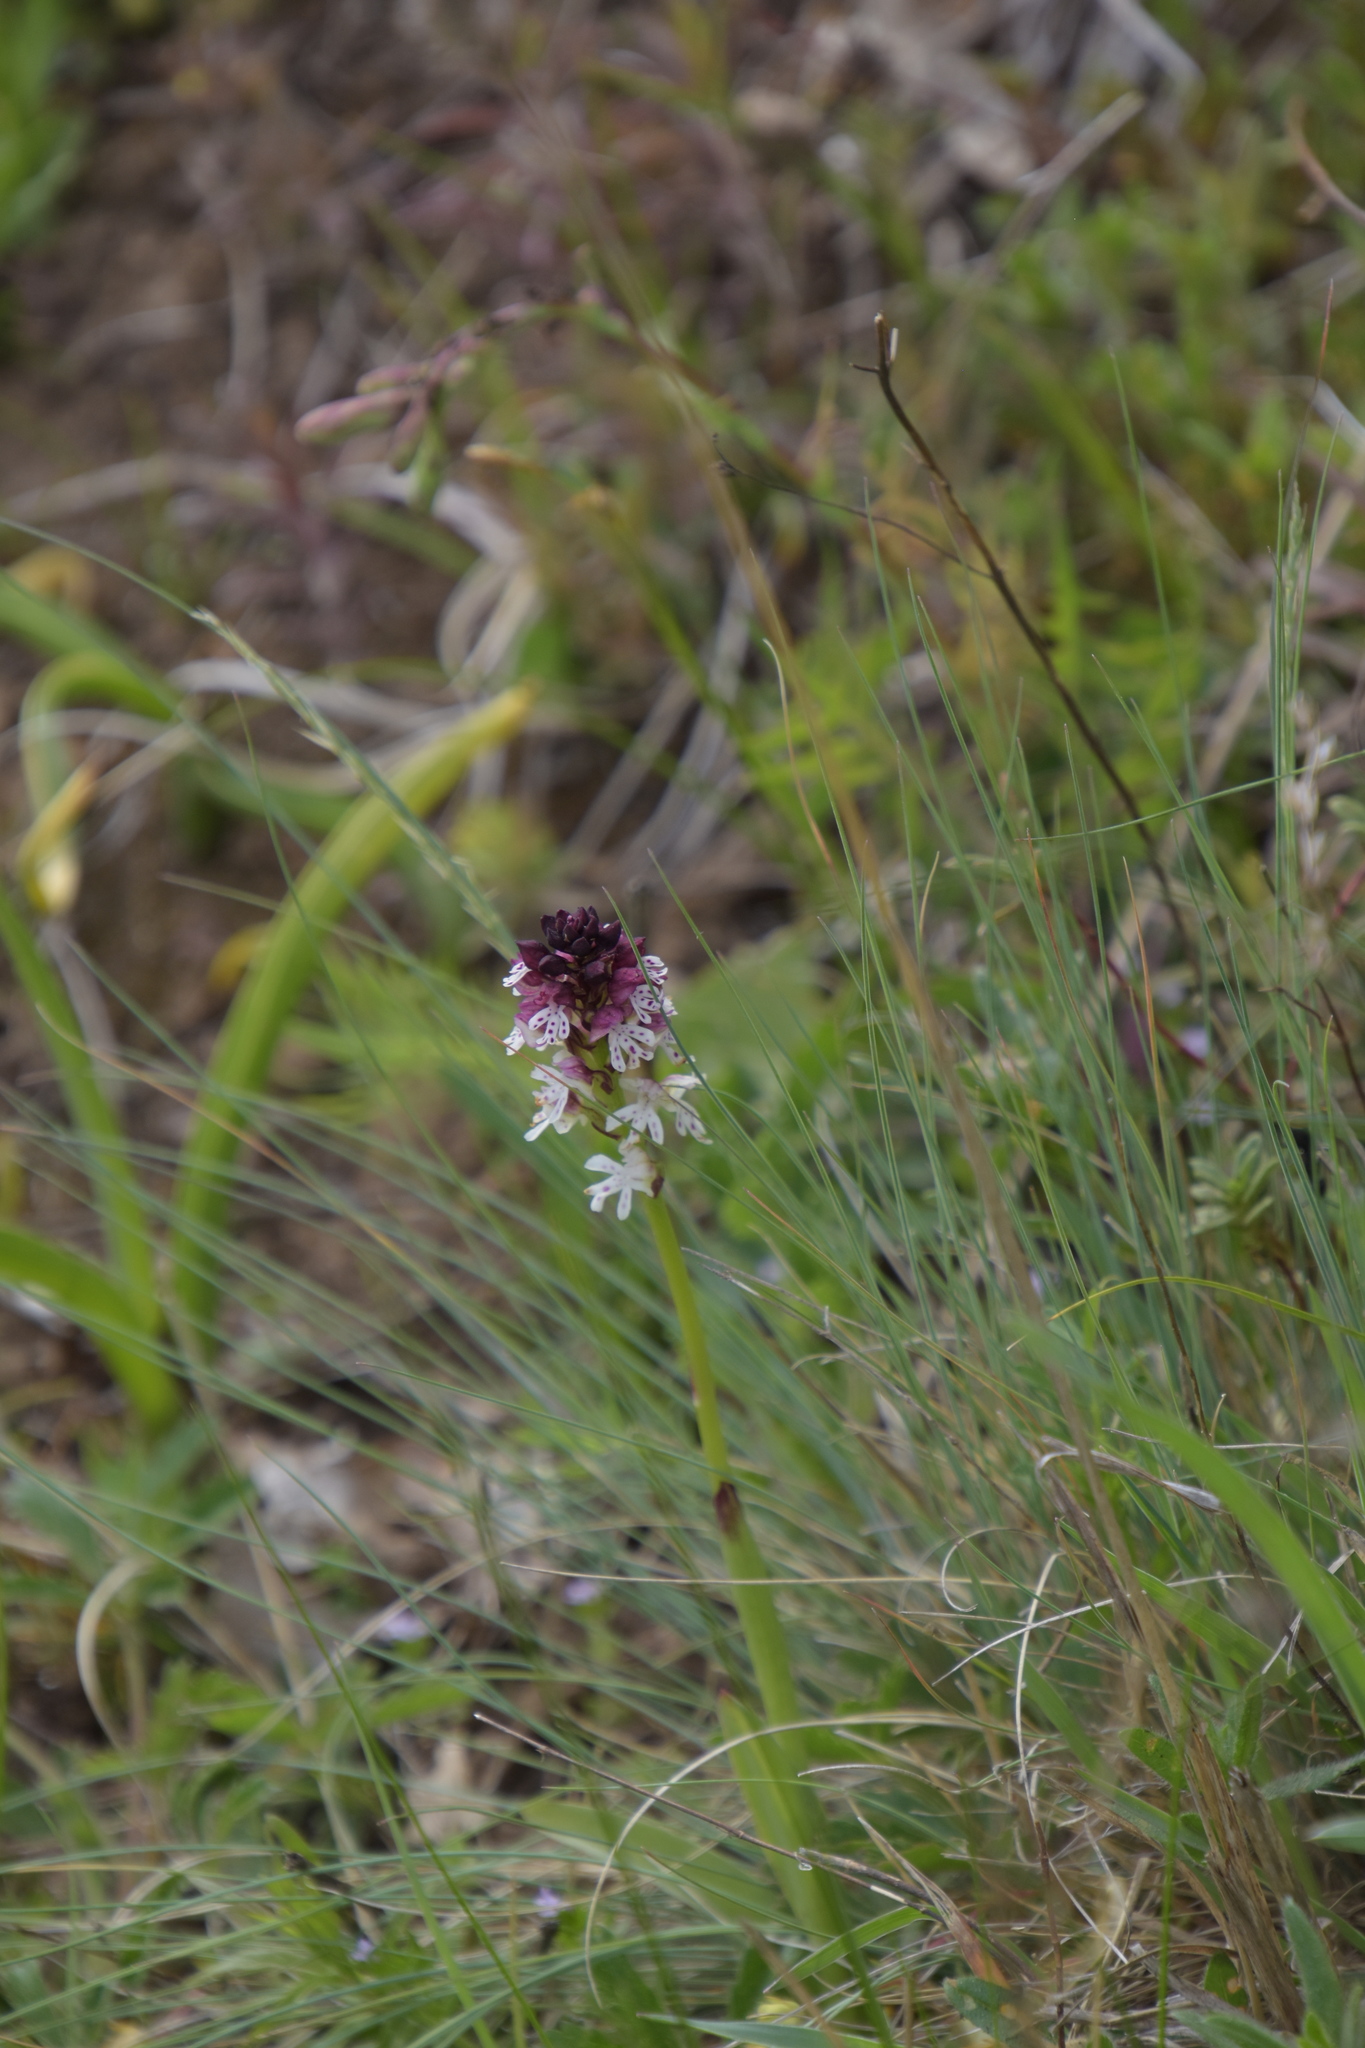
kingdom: Plantae
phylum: Tracheophyta
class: Liliopsida
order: Asparagales
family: Orchidaceae
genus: Neotinea
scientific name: Neotinea ustulata
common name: Burnt orchid
